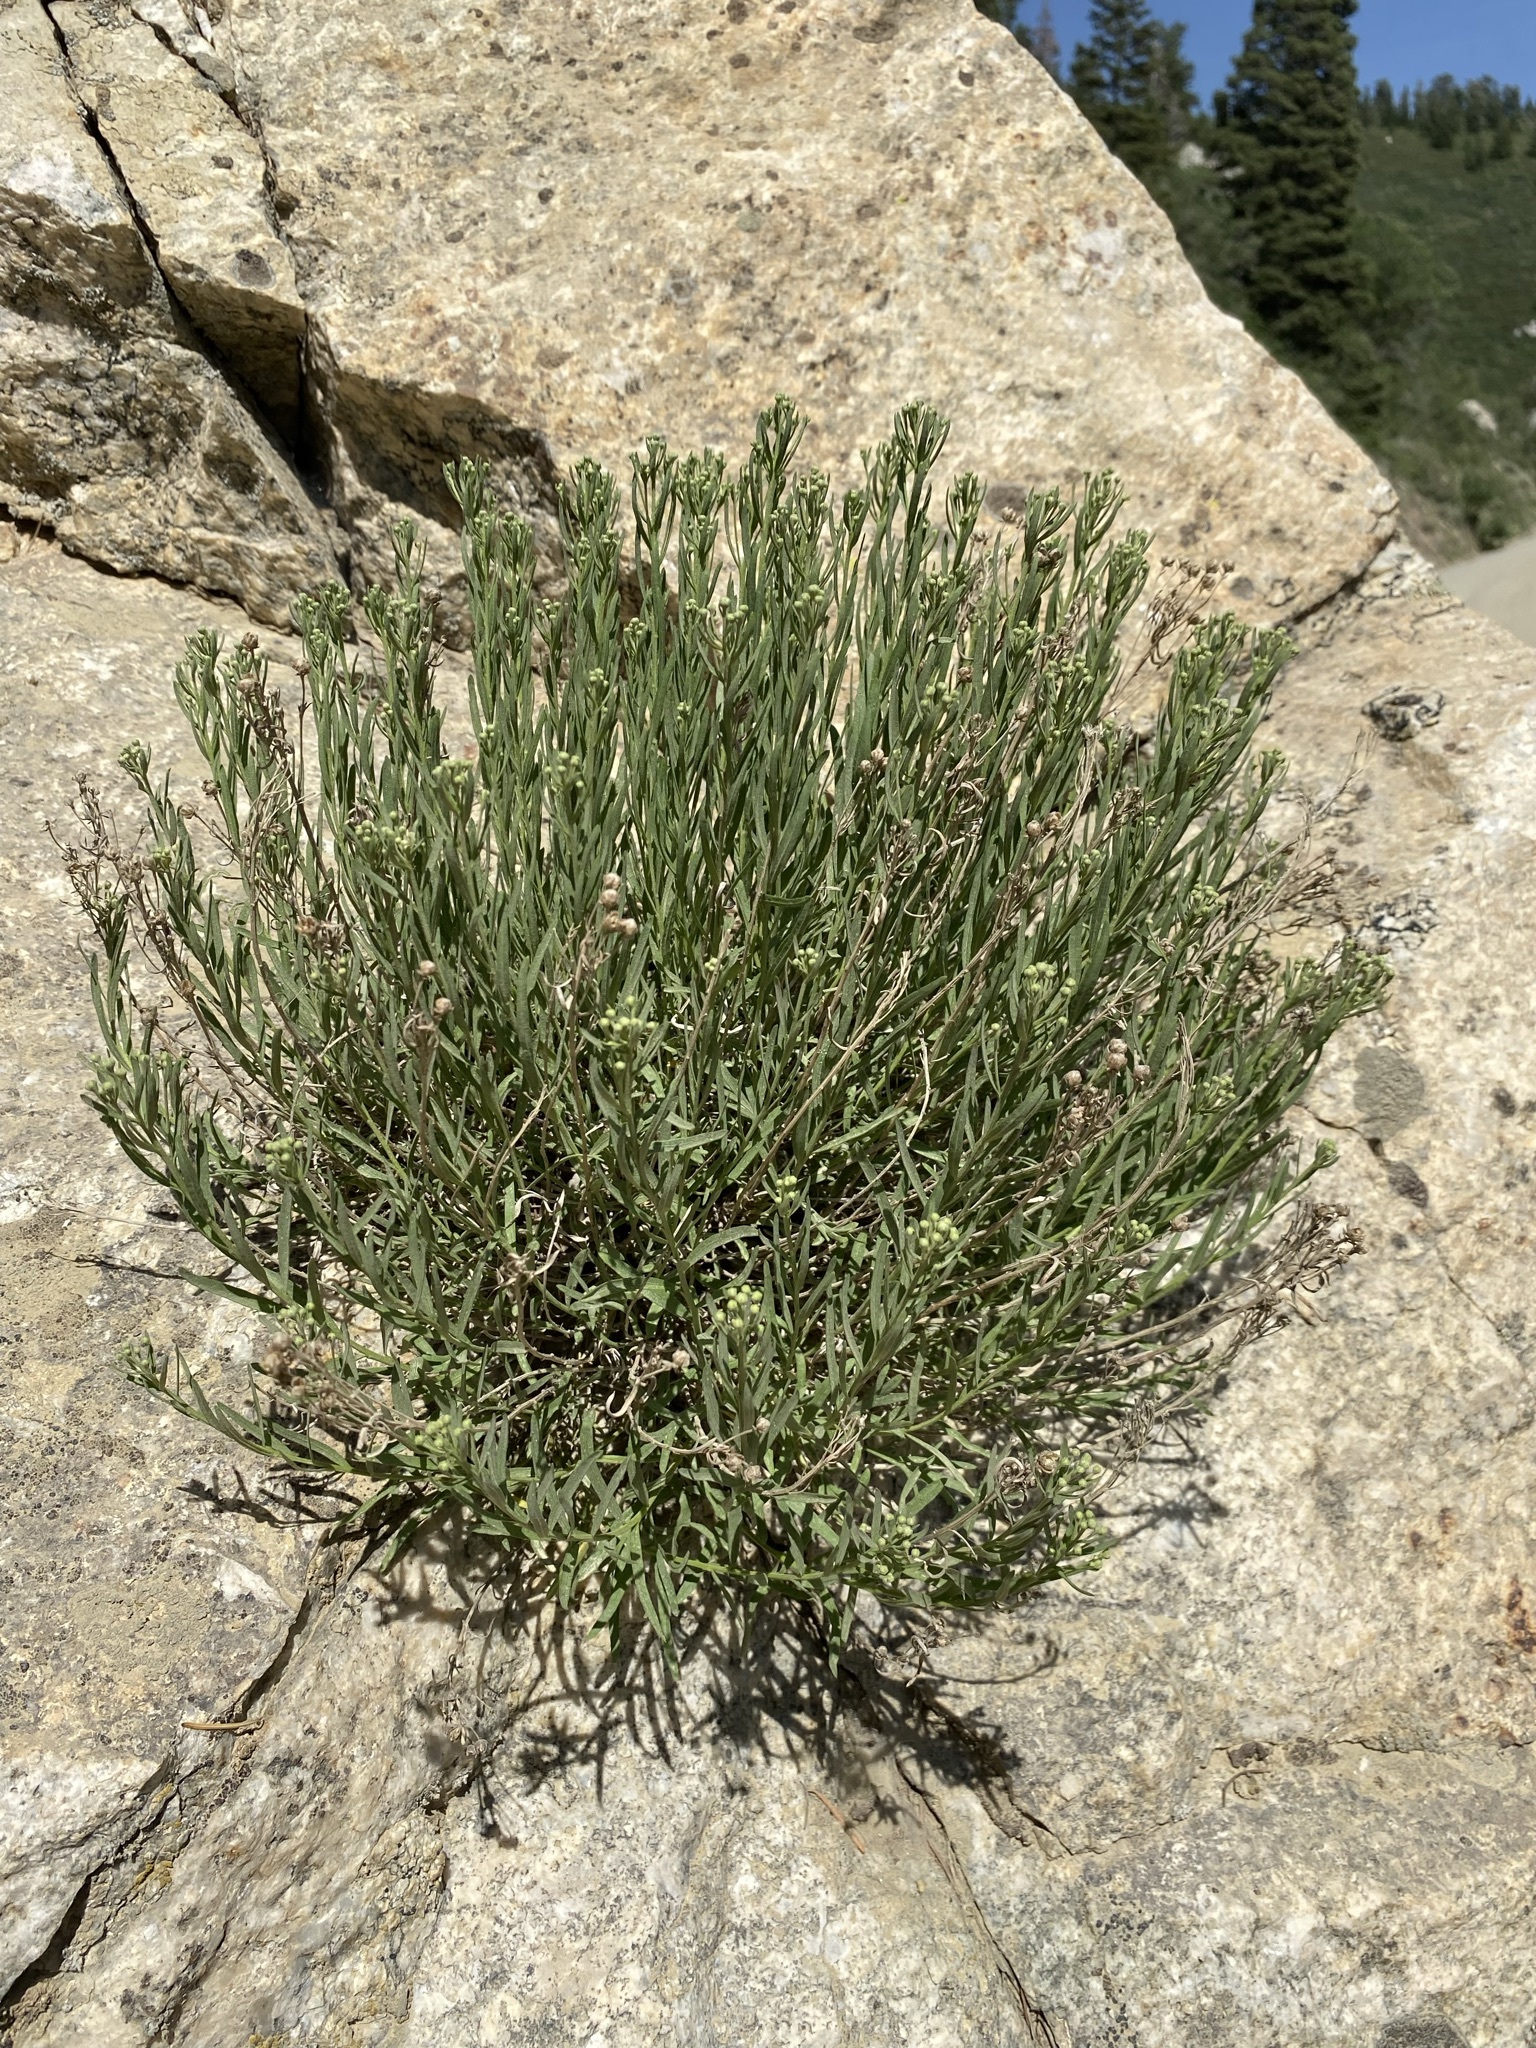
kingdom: Plantae
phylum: Tracheophyta
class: Magnoliopsida
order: Asterales
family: Asteraceae
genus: Artemisia
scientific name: Artemisia inaequifolia
